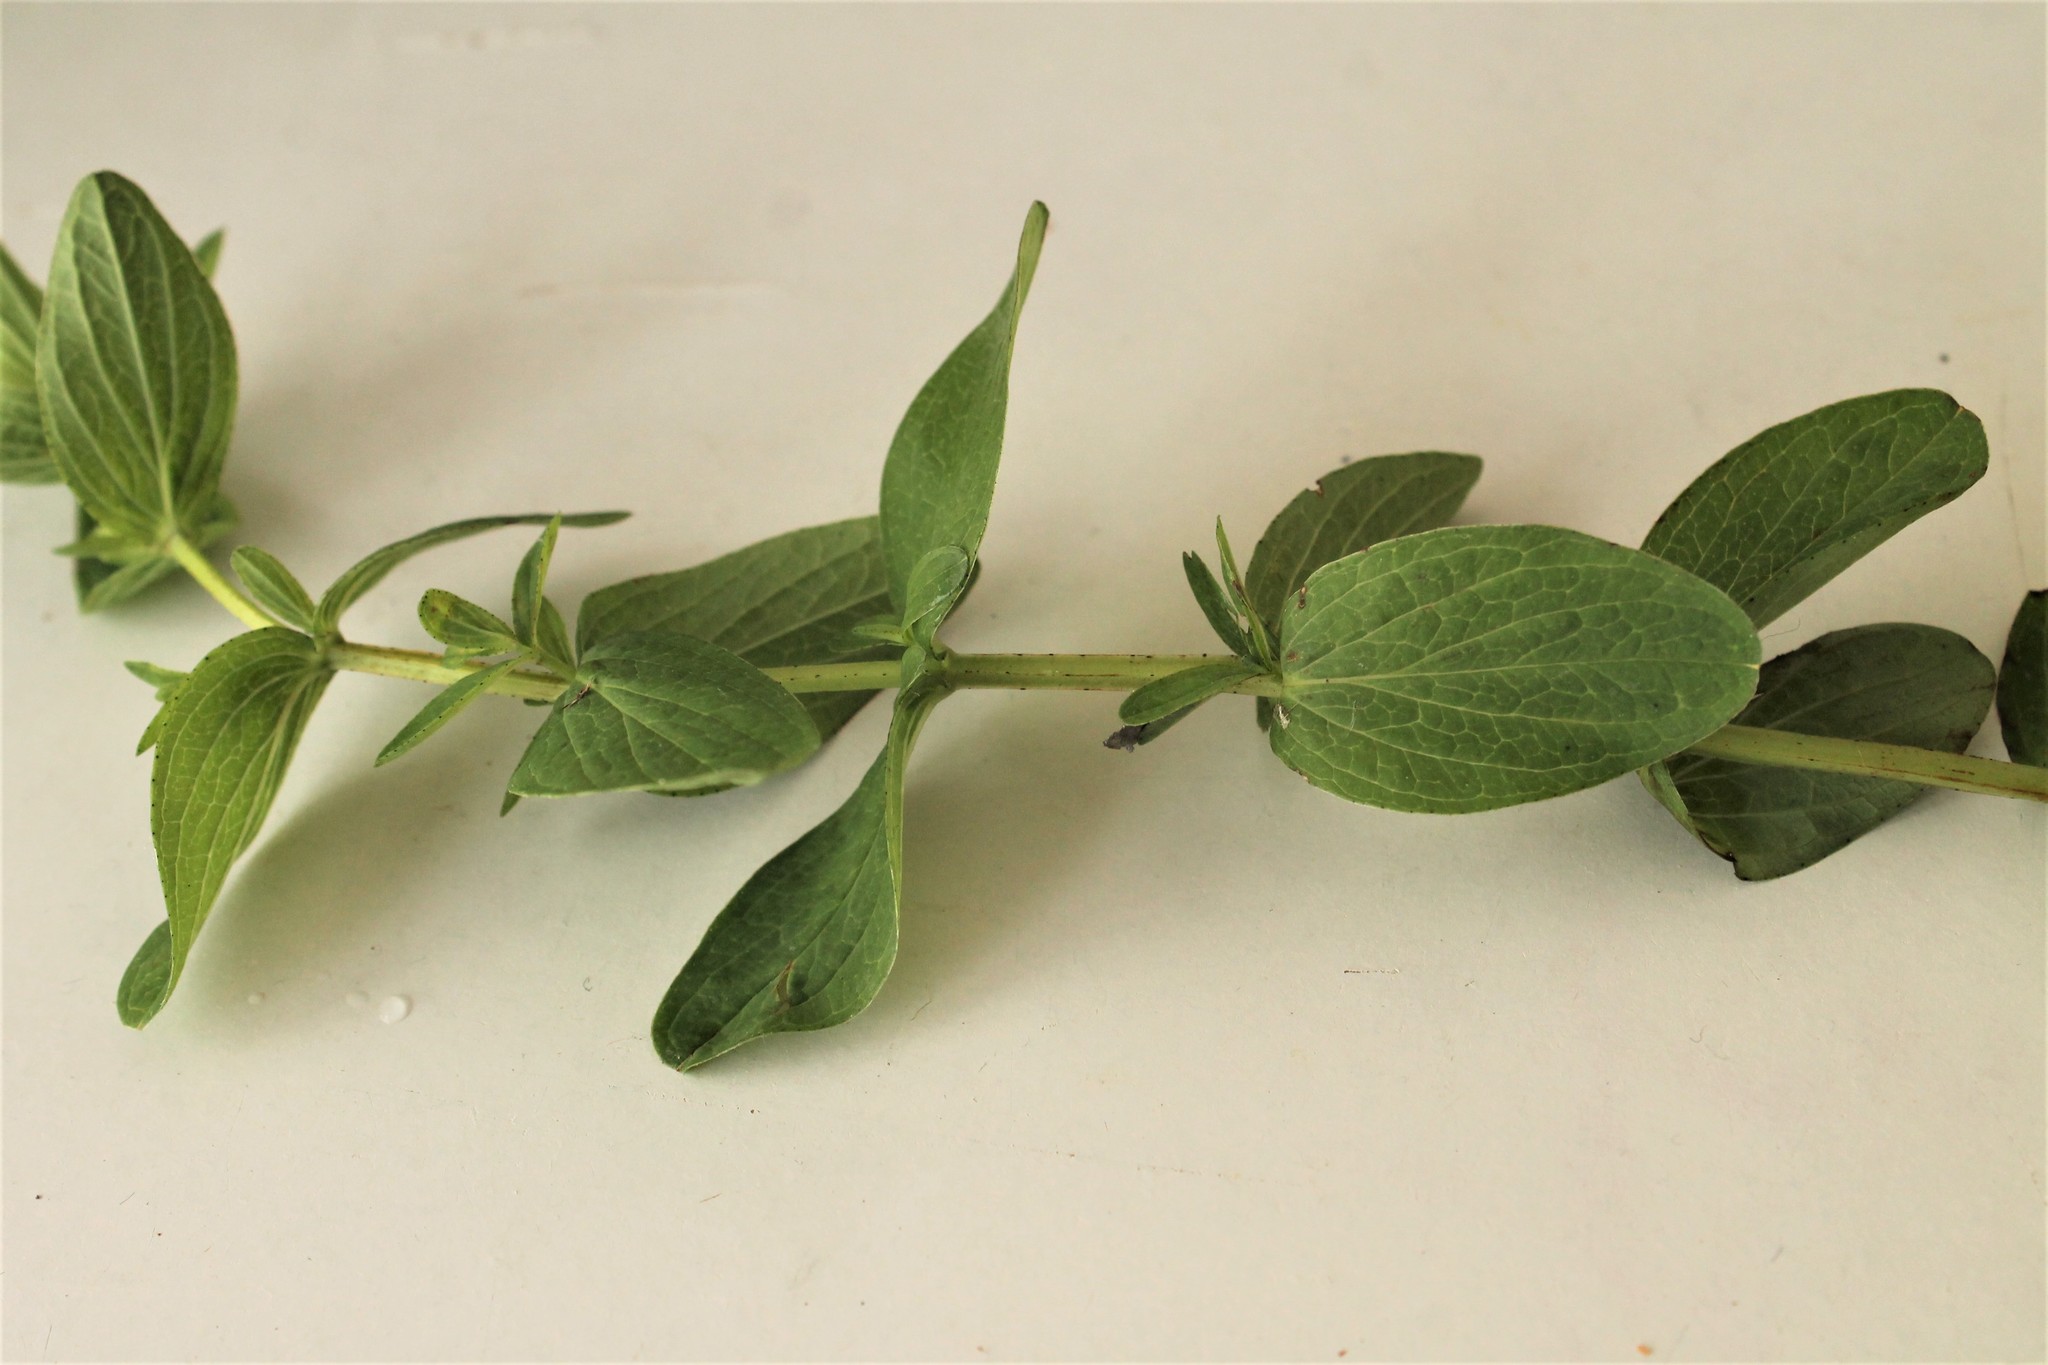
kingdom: Plantae
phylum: Tracheophyta
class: Magnoliopsida
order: Malpighiales
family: Hypericaceae
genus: Hypericum
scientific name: Hypericum tetrapterum
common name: Square-stalked st. john's-wort
